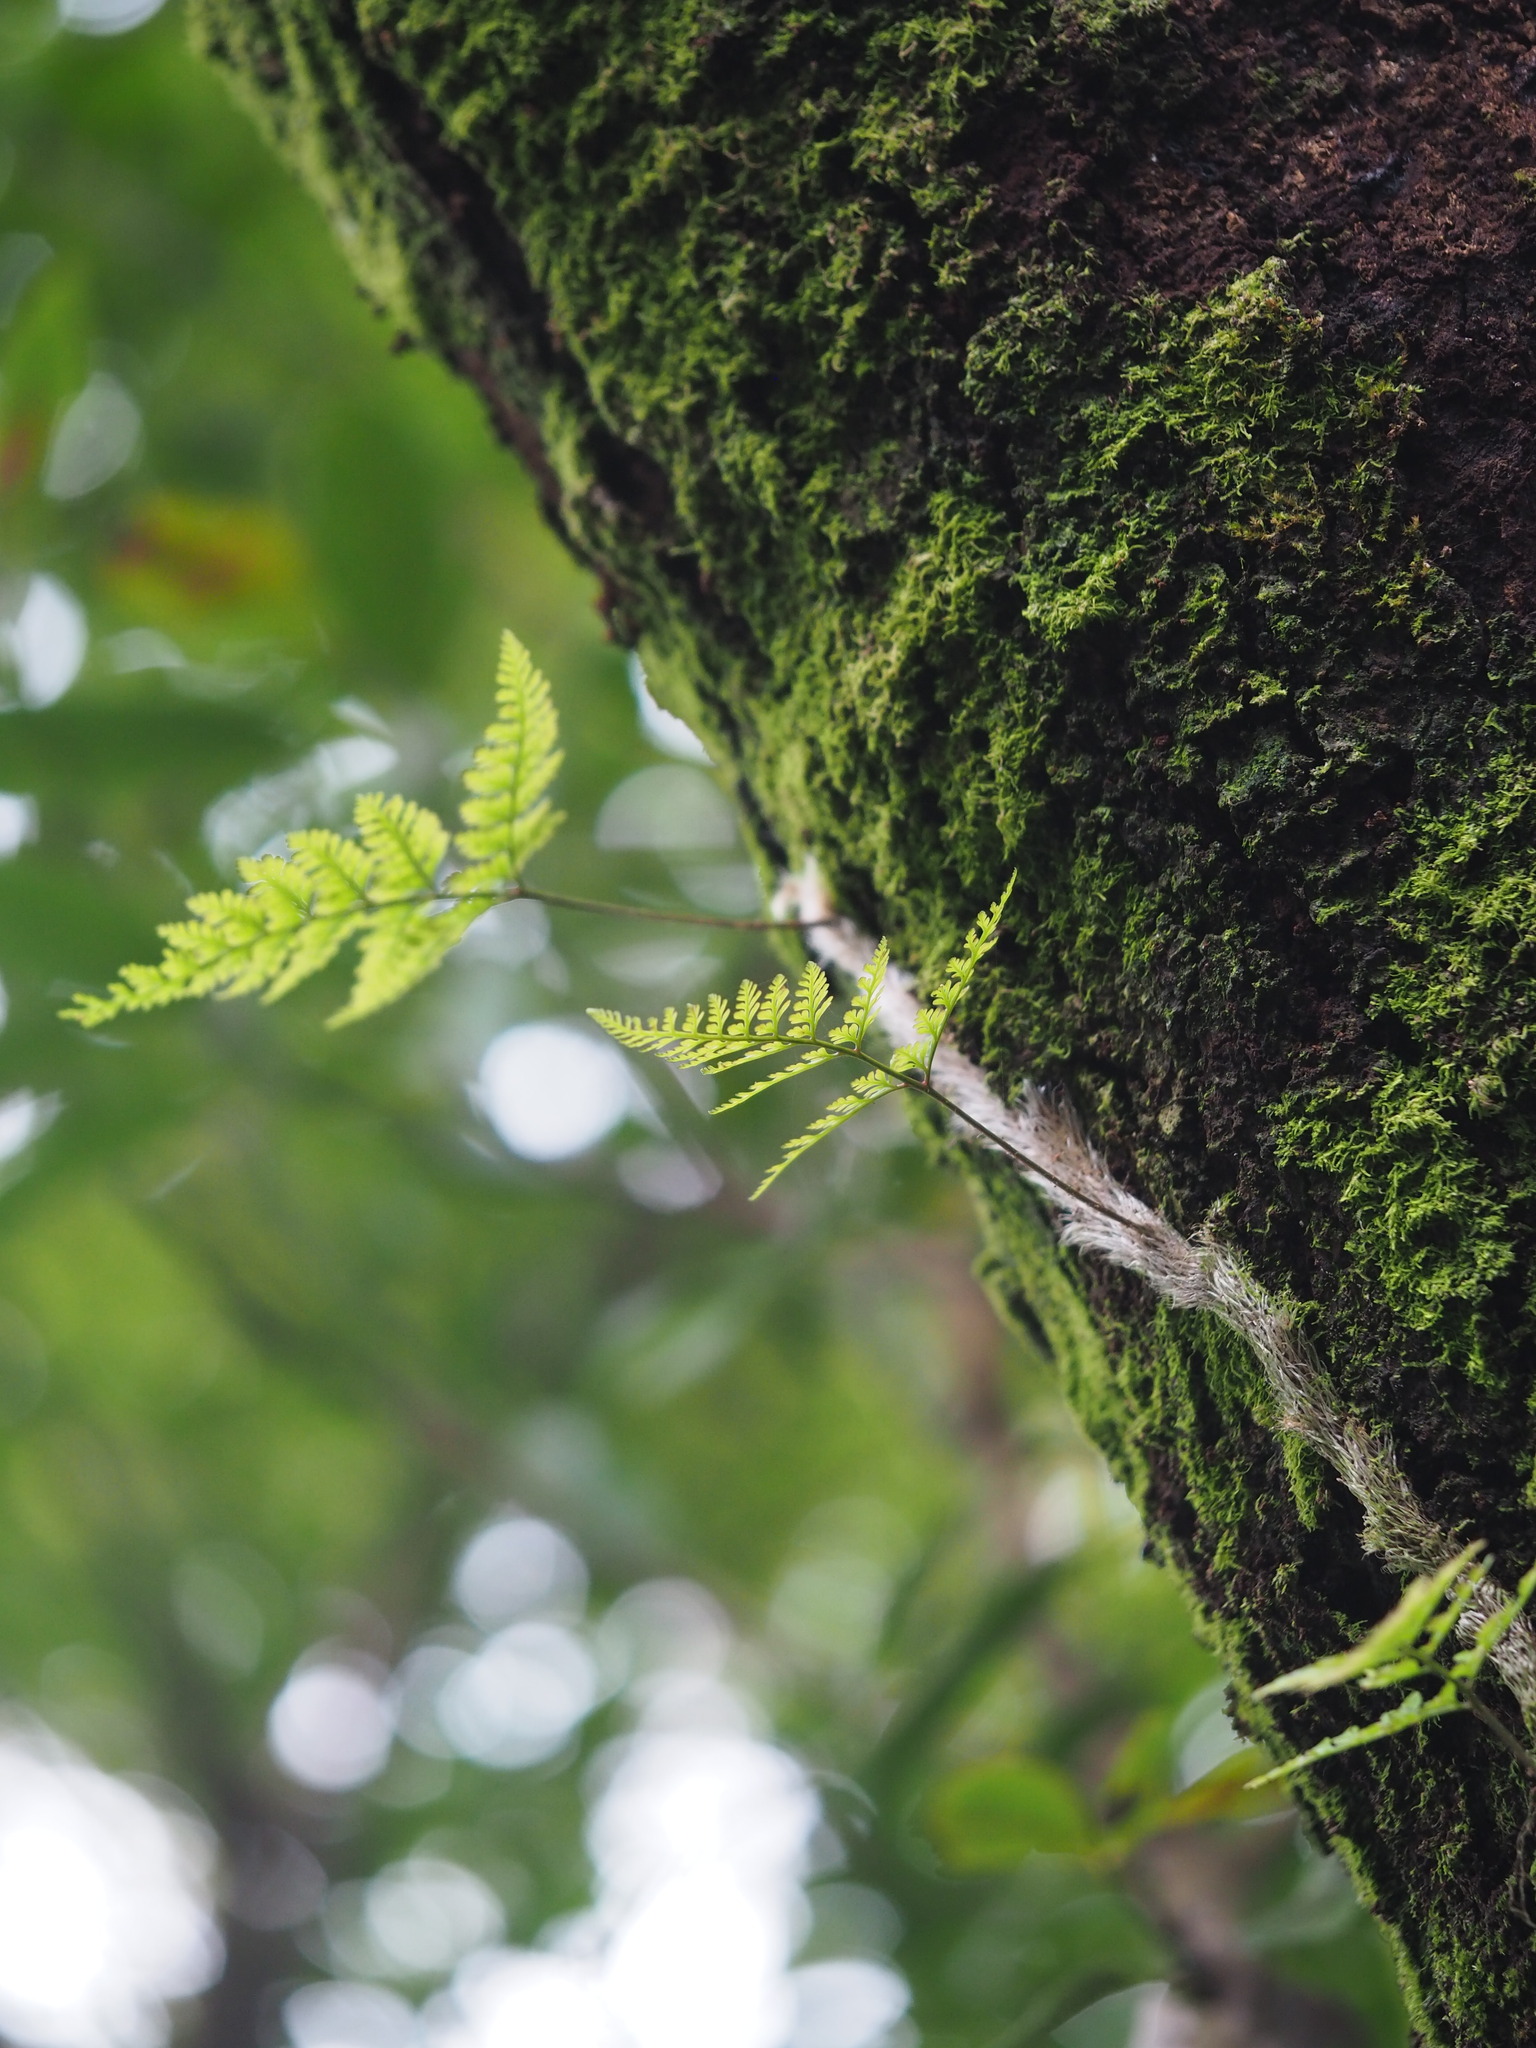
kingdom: Plantae
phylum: Tracheophyta
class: Polypodiopsida
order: Polypodiales
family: Davalliaceae
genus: Davallia
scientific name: Davallia griffithiana
